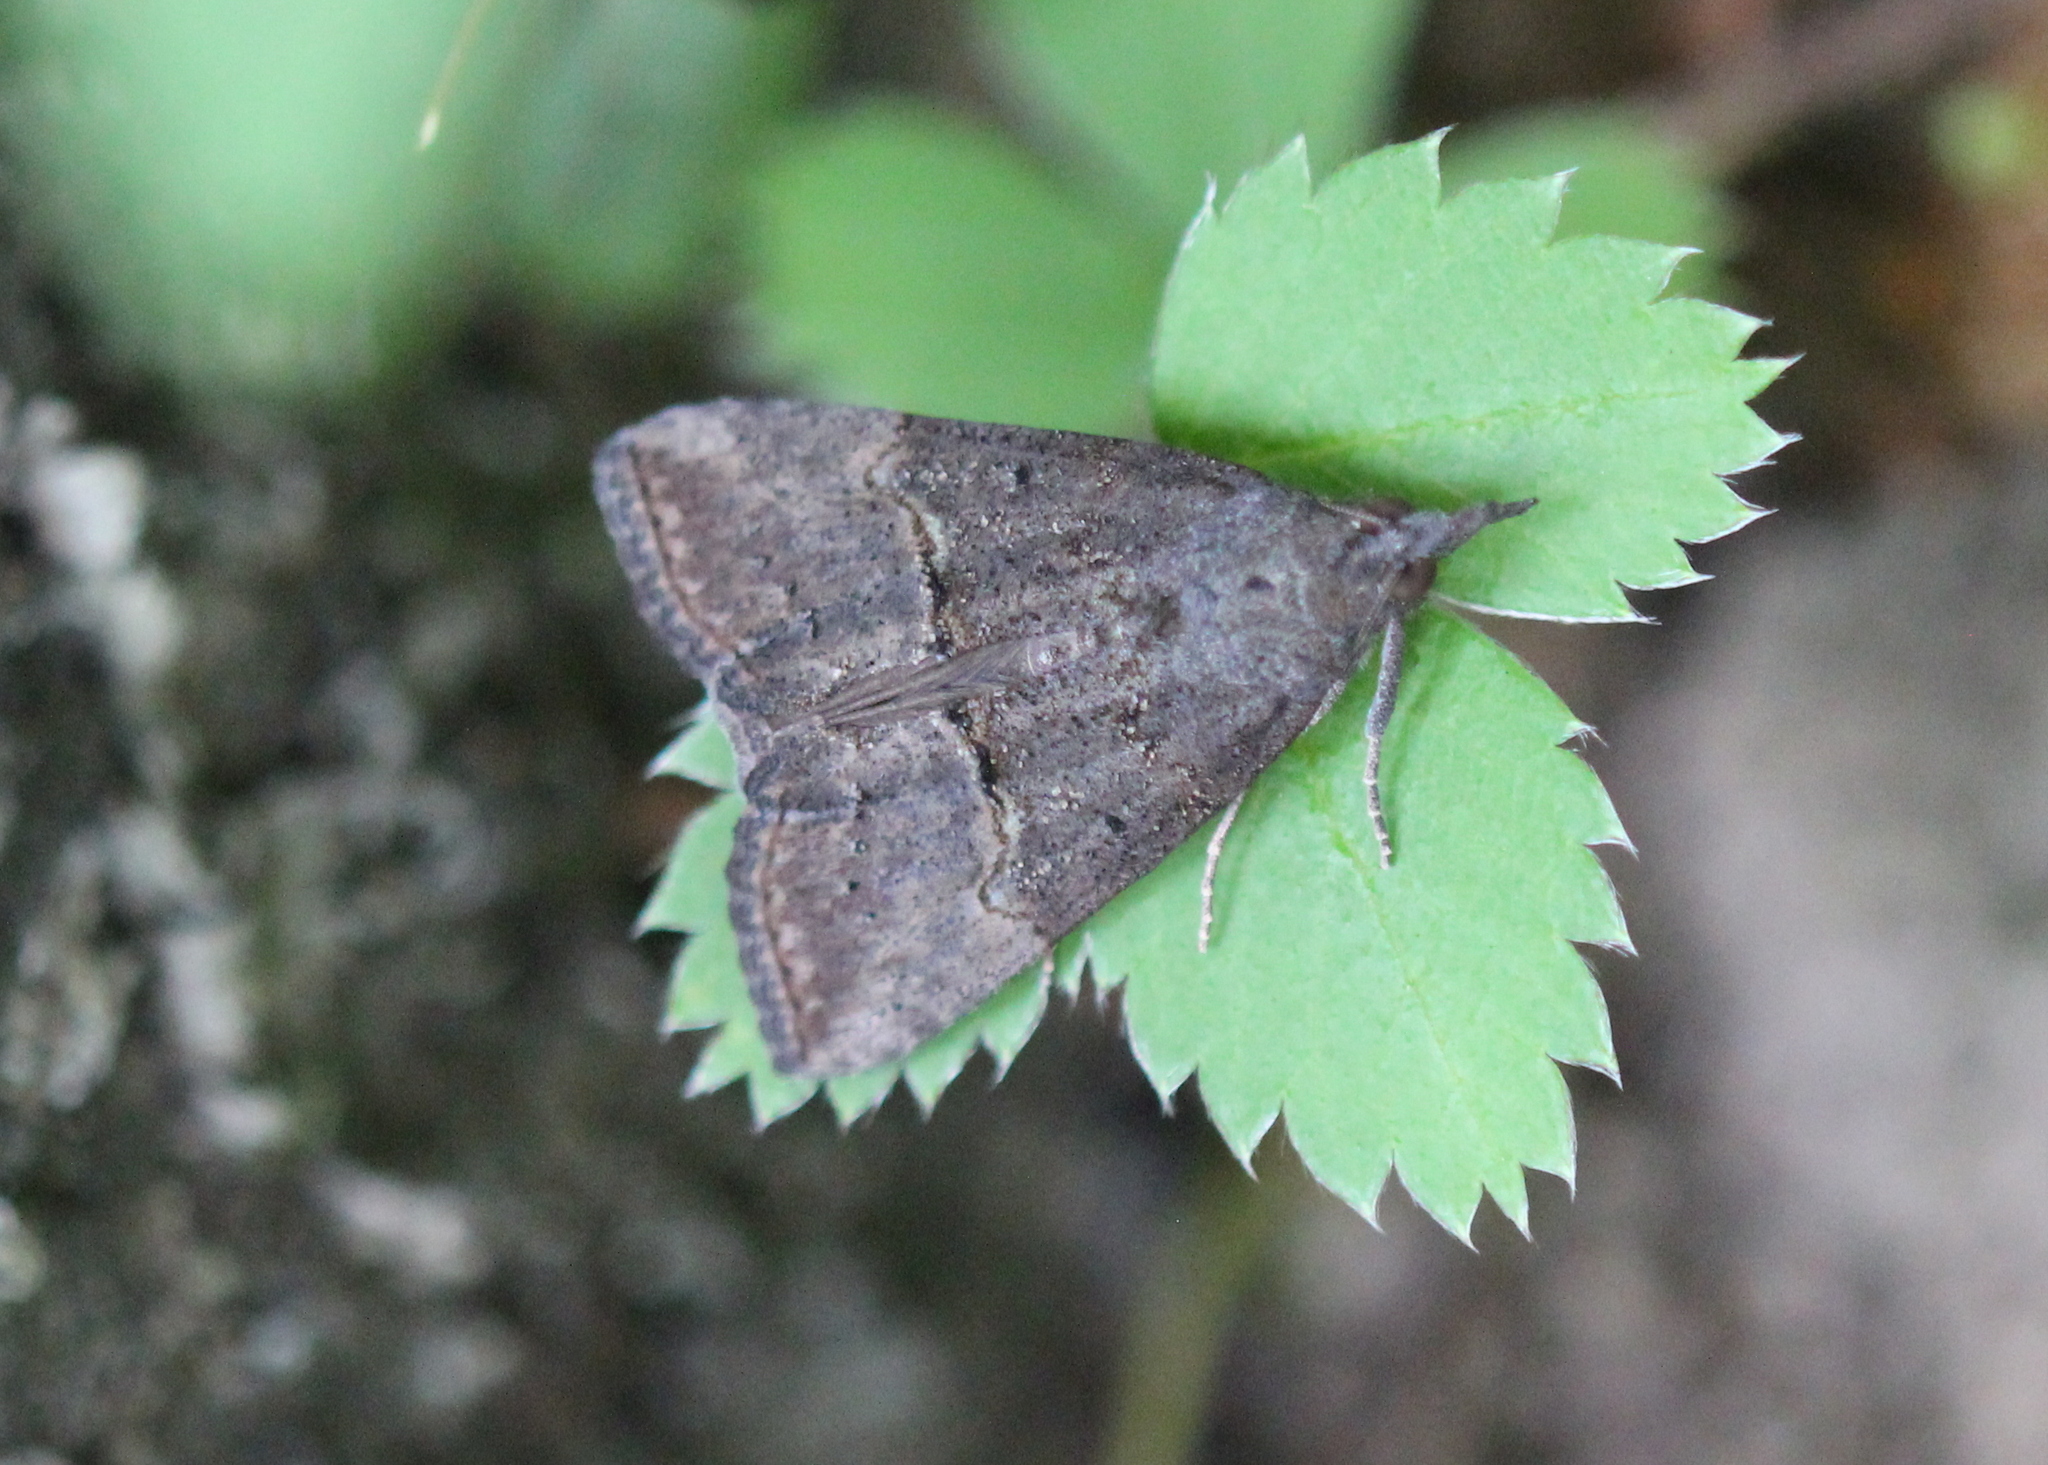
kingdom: Animalia
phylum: Arthropoda
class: Insecta
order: Lepidoptera
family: Erebidae
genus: Hypena
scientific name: Hypena scabra
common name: Green cloverworm
